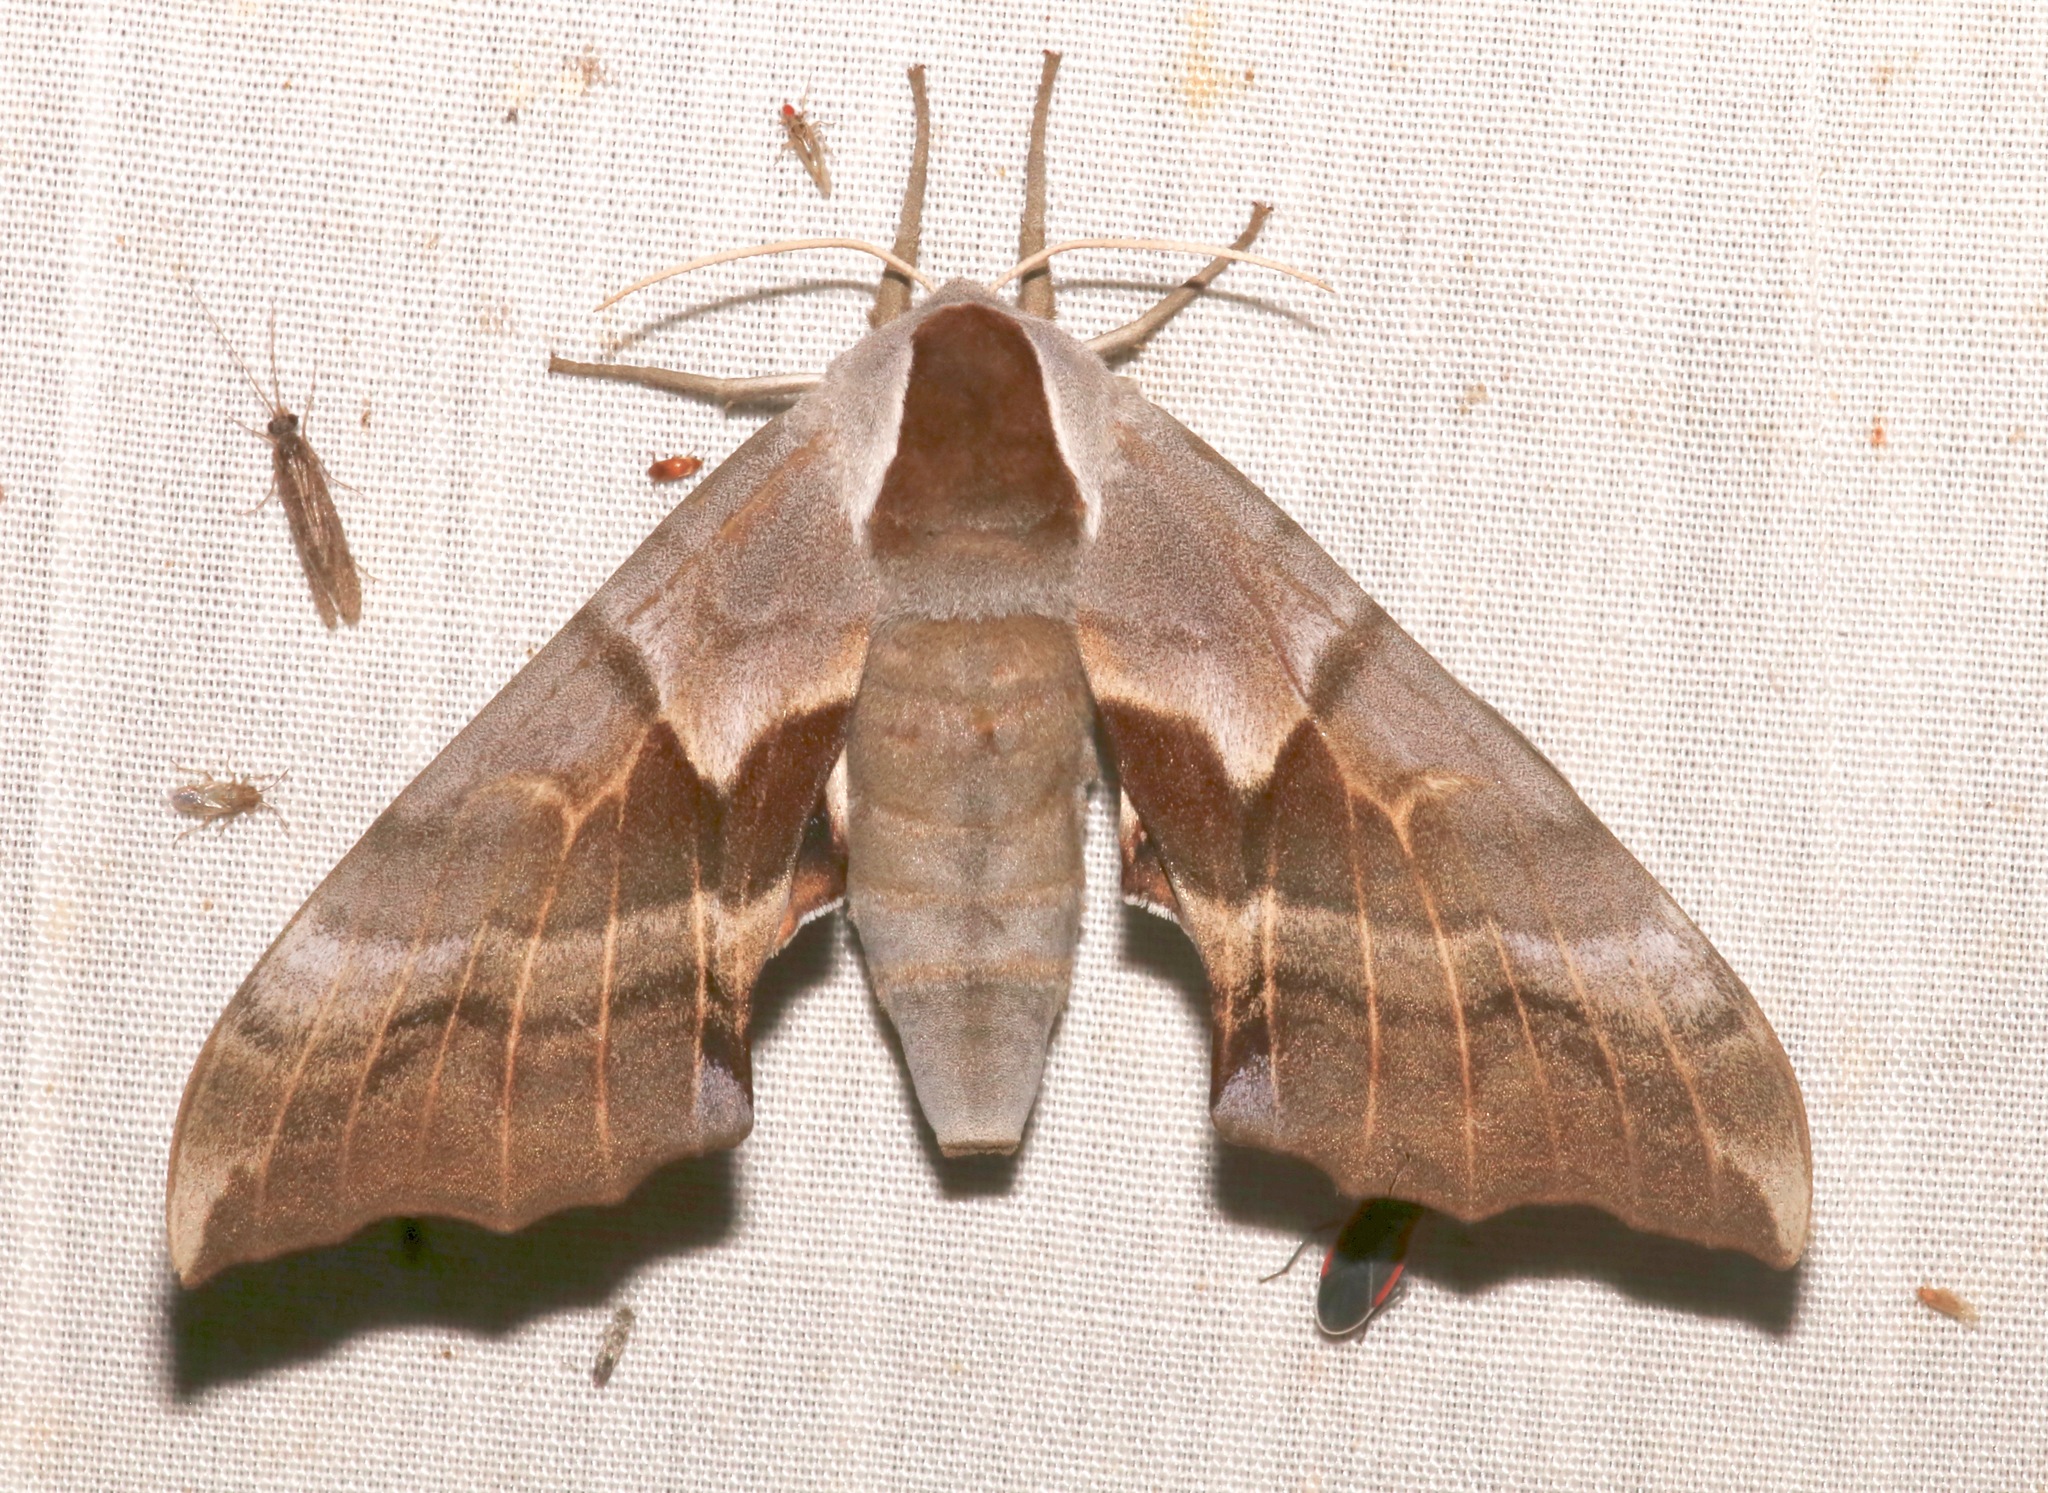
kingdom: Animalia
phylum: Arthropoda
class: Insecta
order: Lepidoptera
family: Sphingidae
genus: Smerinthus
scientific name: Smerinthus saliceti
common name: Salicet sphinx
